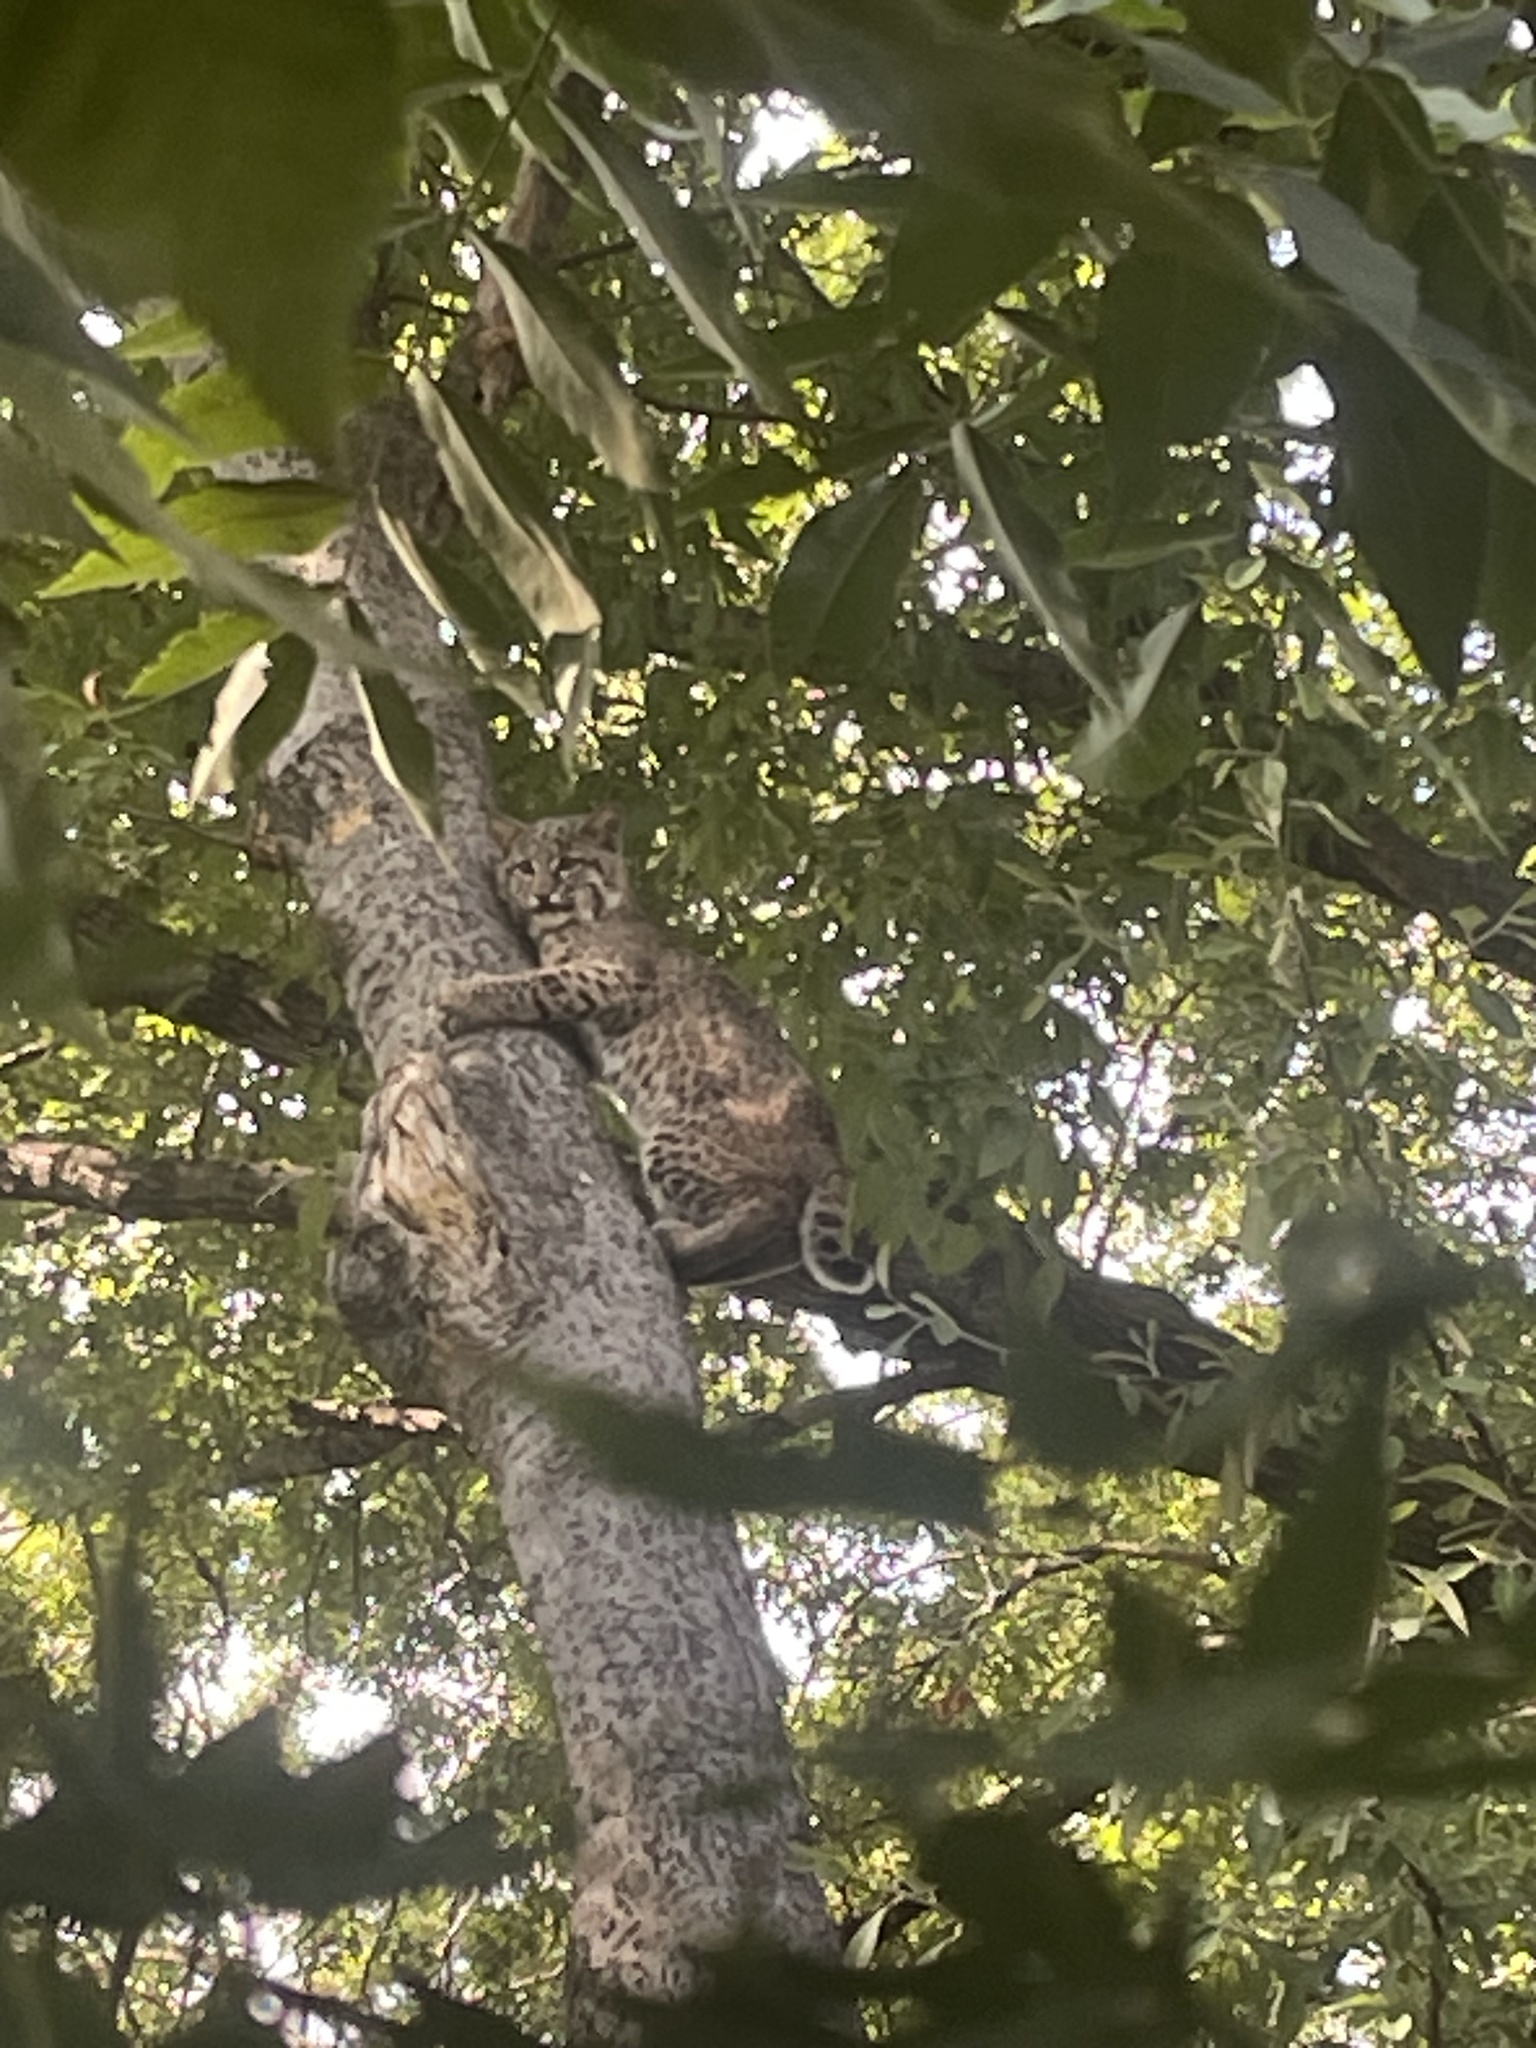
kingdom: Animalia
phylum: Chordata
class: Mammalia
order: Carnivora
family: Felidae
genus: Lynx
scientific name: Lynx rufus
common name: Bobcat
